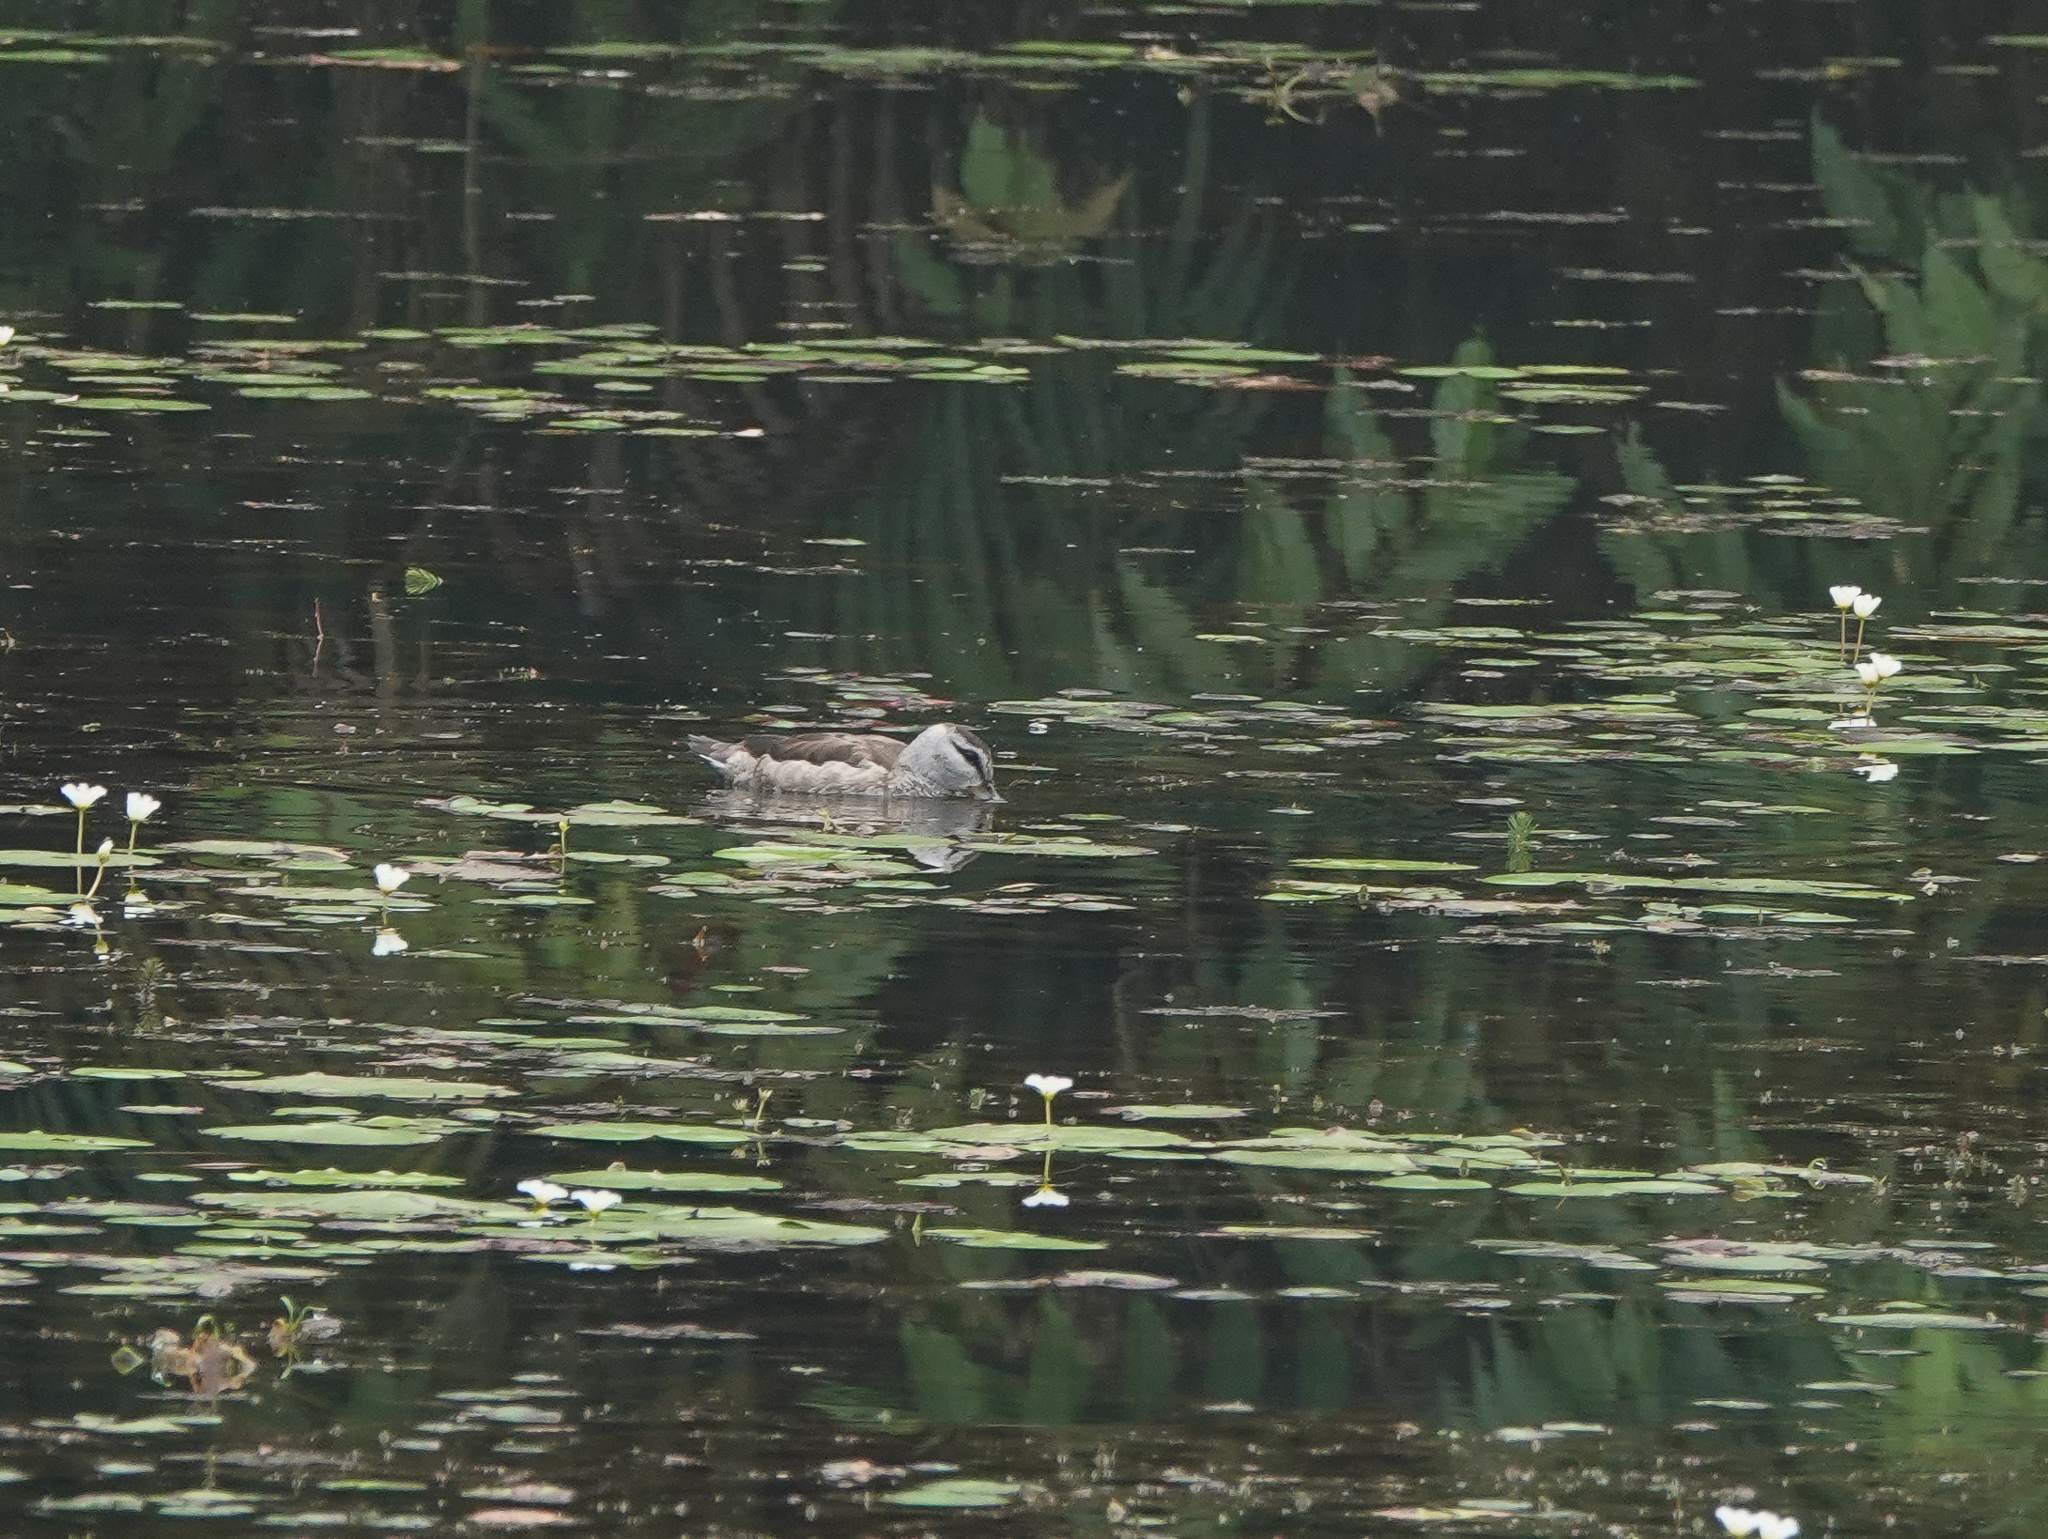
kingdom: Animalia
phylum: Chordata
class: Aves
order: Anseriformes
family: Anatidae
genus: Nettapus
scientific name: Nettapus coromandelianus
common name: Cotton pygmy-goose
